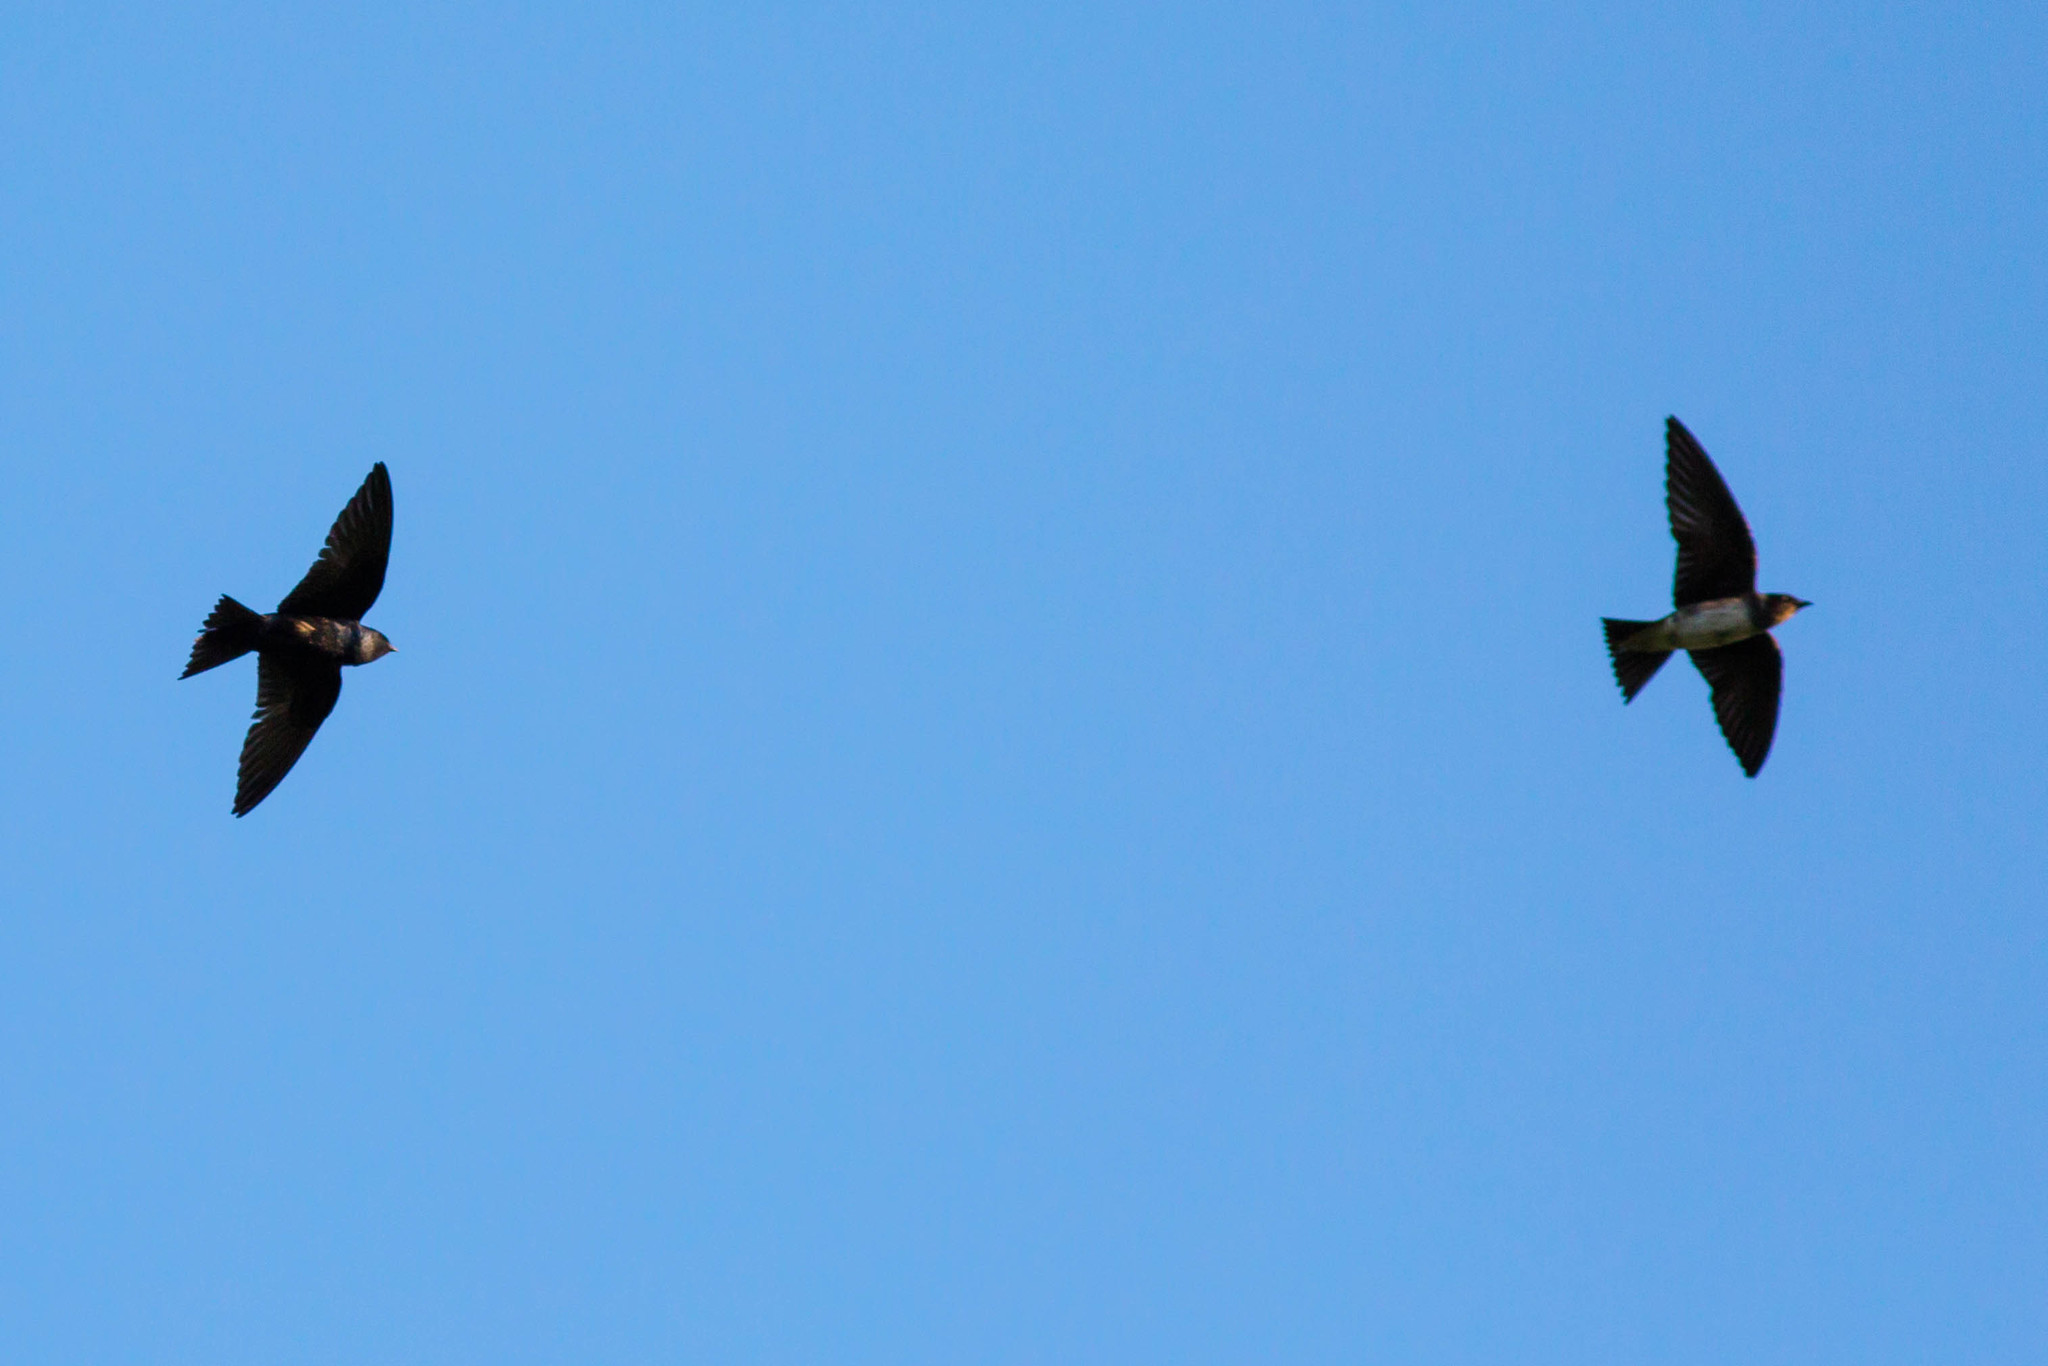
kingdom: Animalia
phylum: Chordata
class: Aves
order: Passeriformes
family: Hirundinidae
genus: Progne
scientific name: Progne subis
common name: Purple martin
